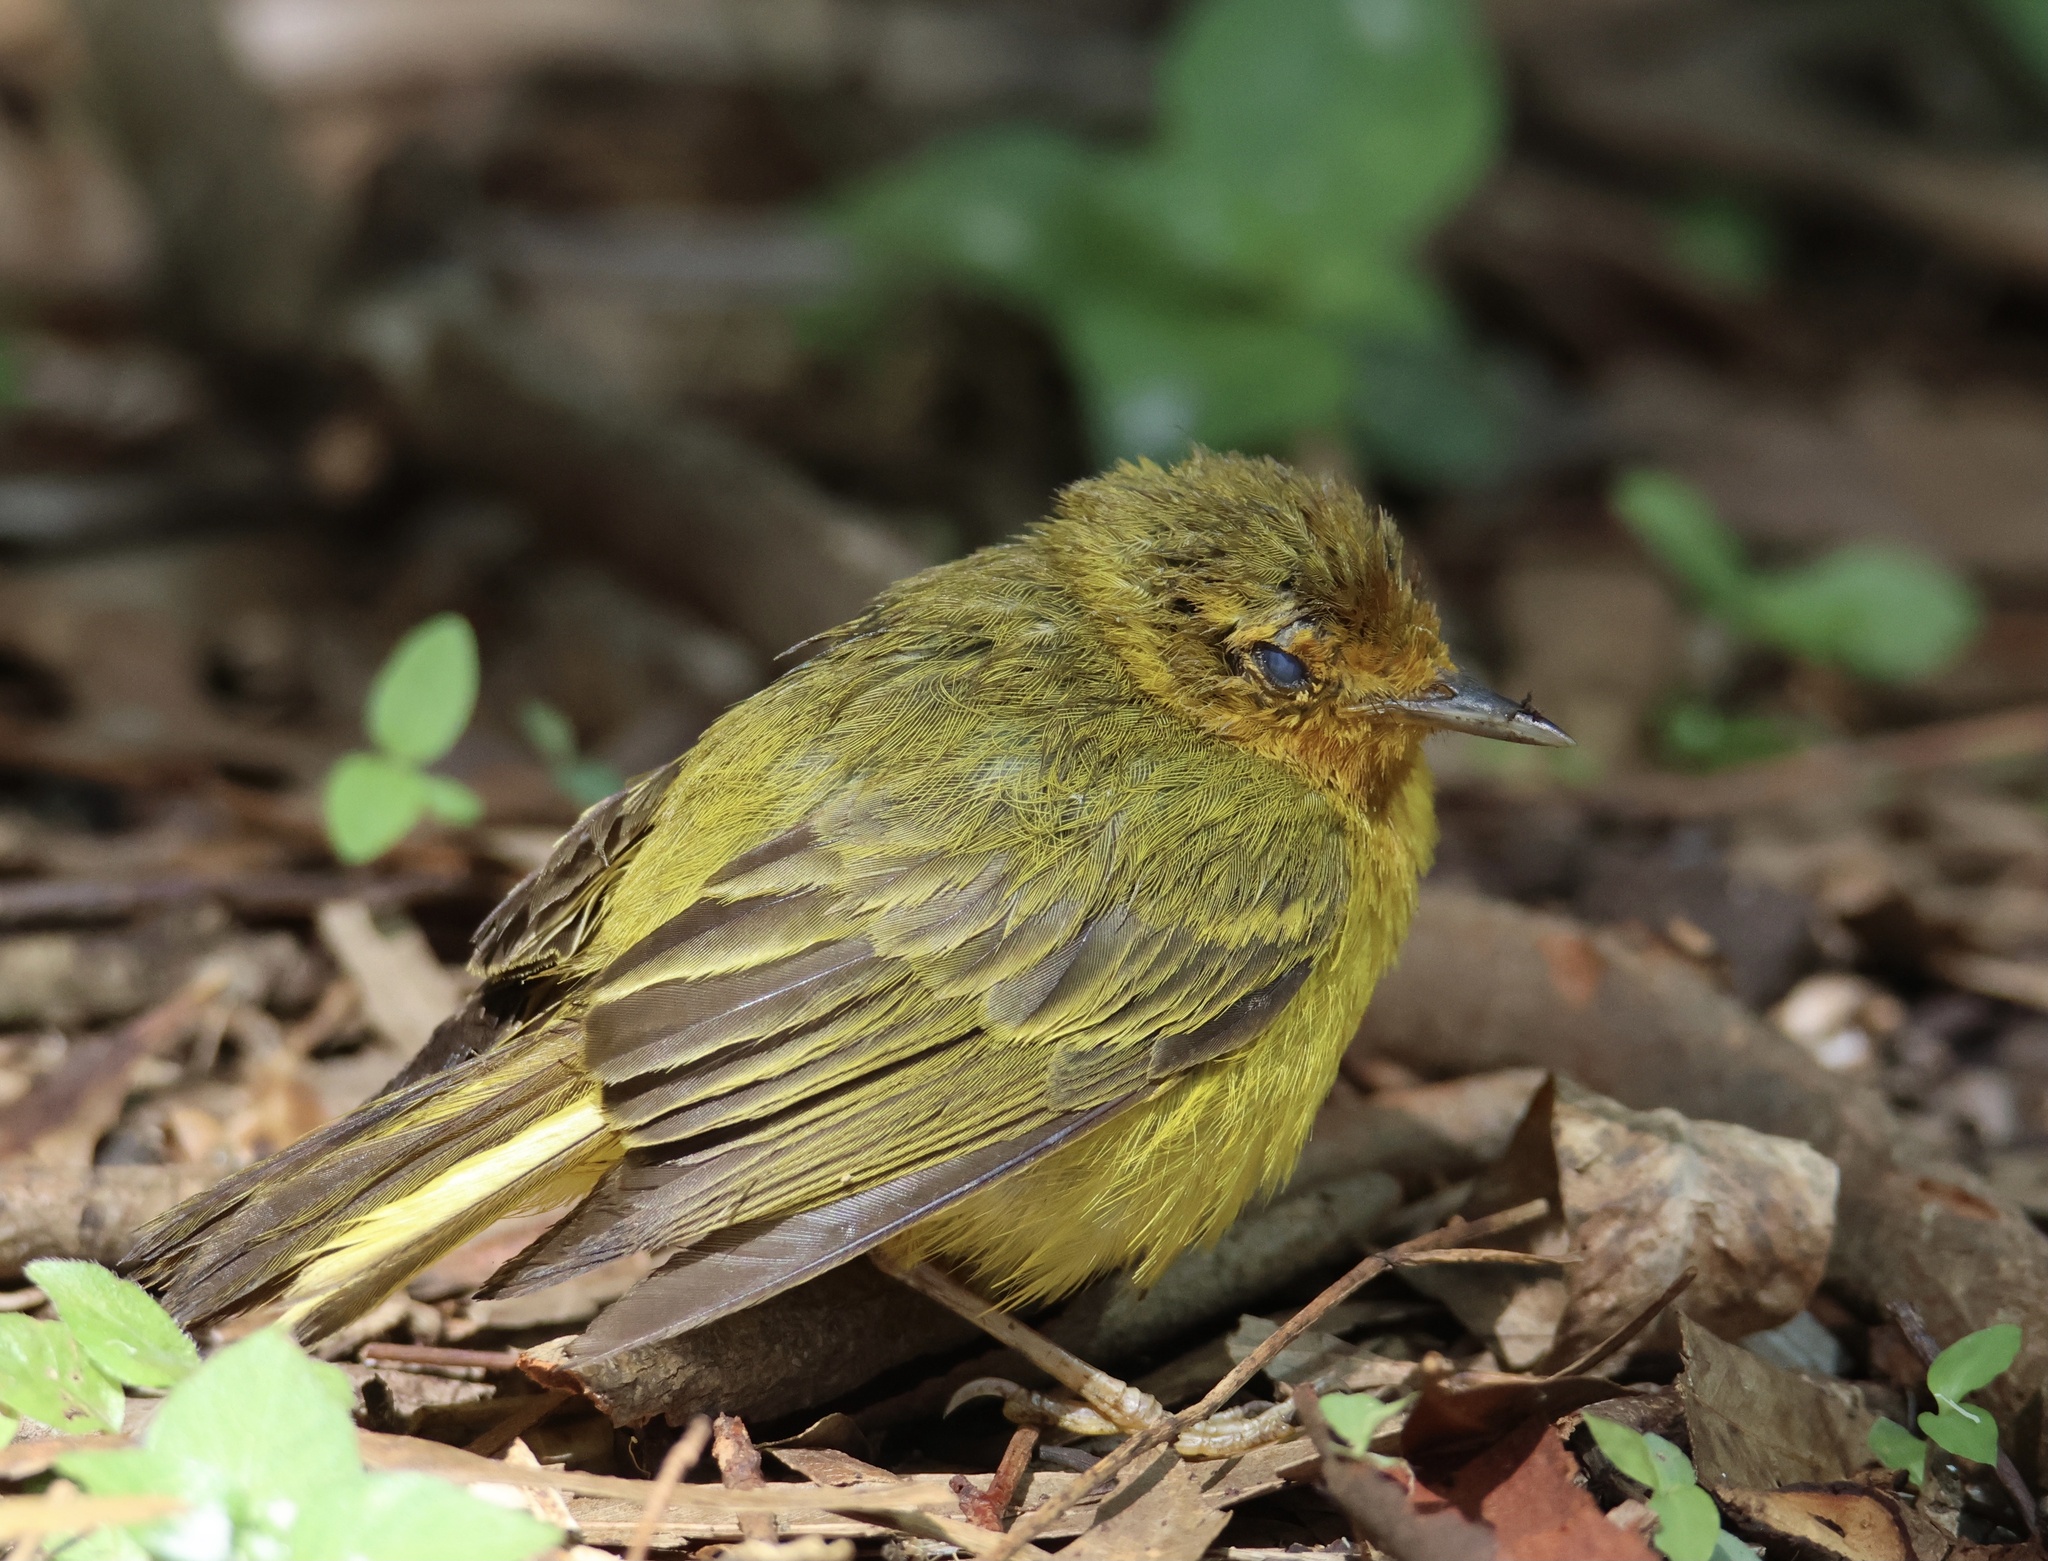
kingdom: Animalia
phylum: Chordata
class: Aves
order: Passeriformes
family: Parulidae
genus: Setophaga
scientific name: Setophaga petechia
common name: Yellow warbler
